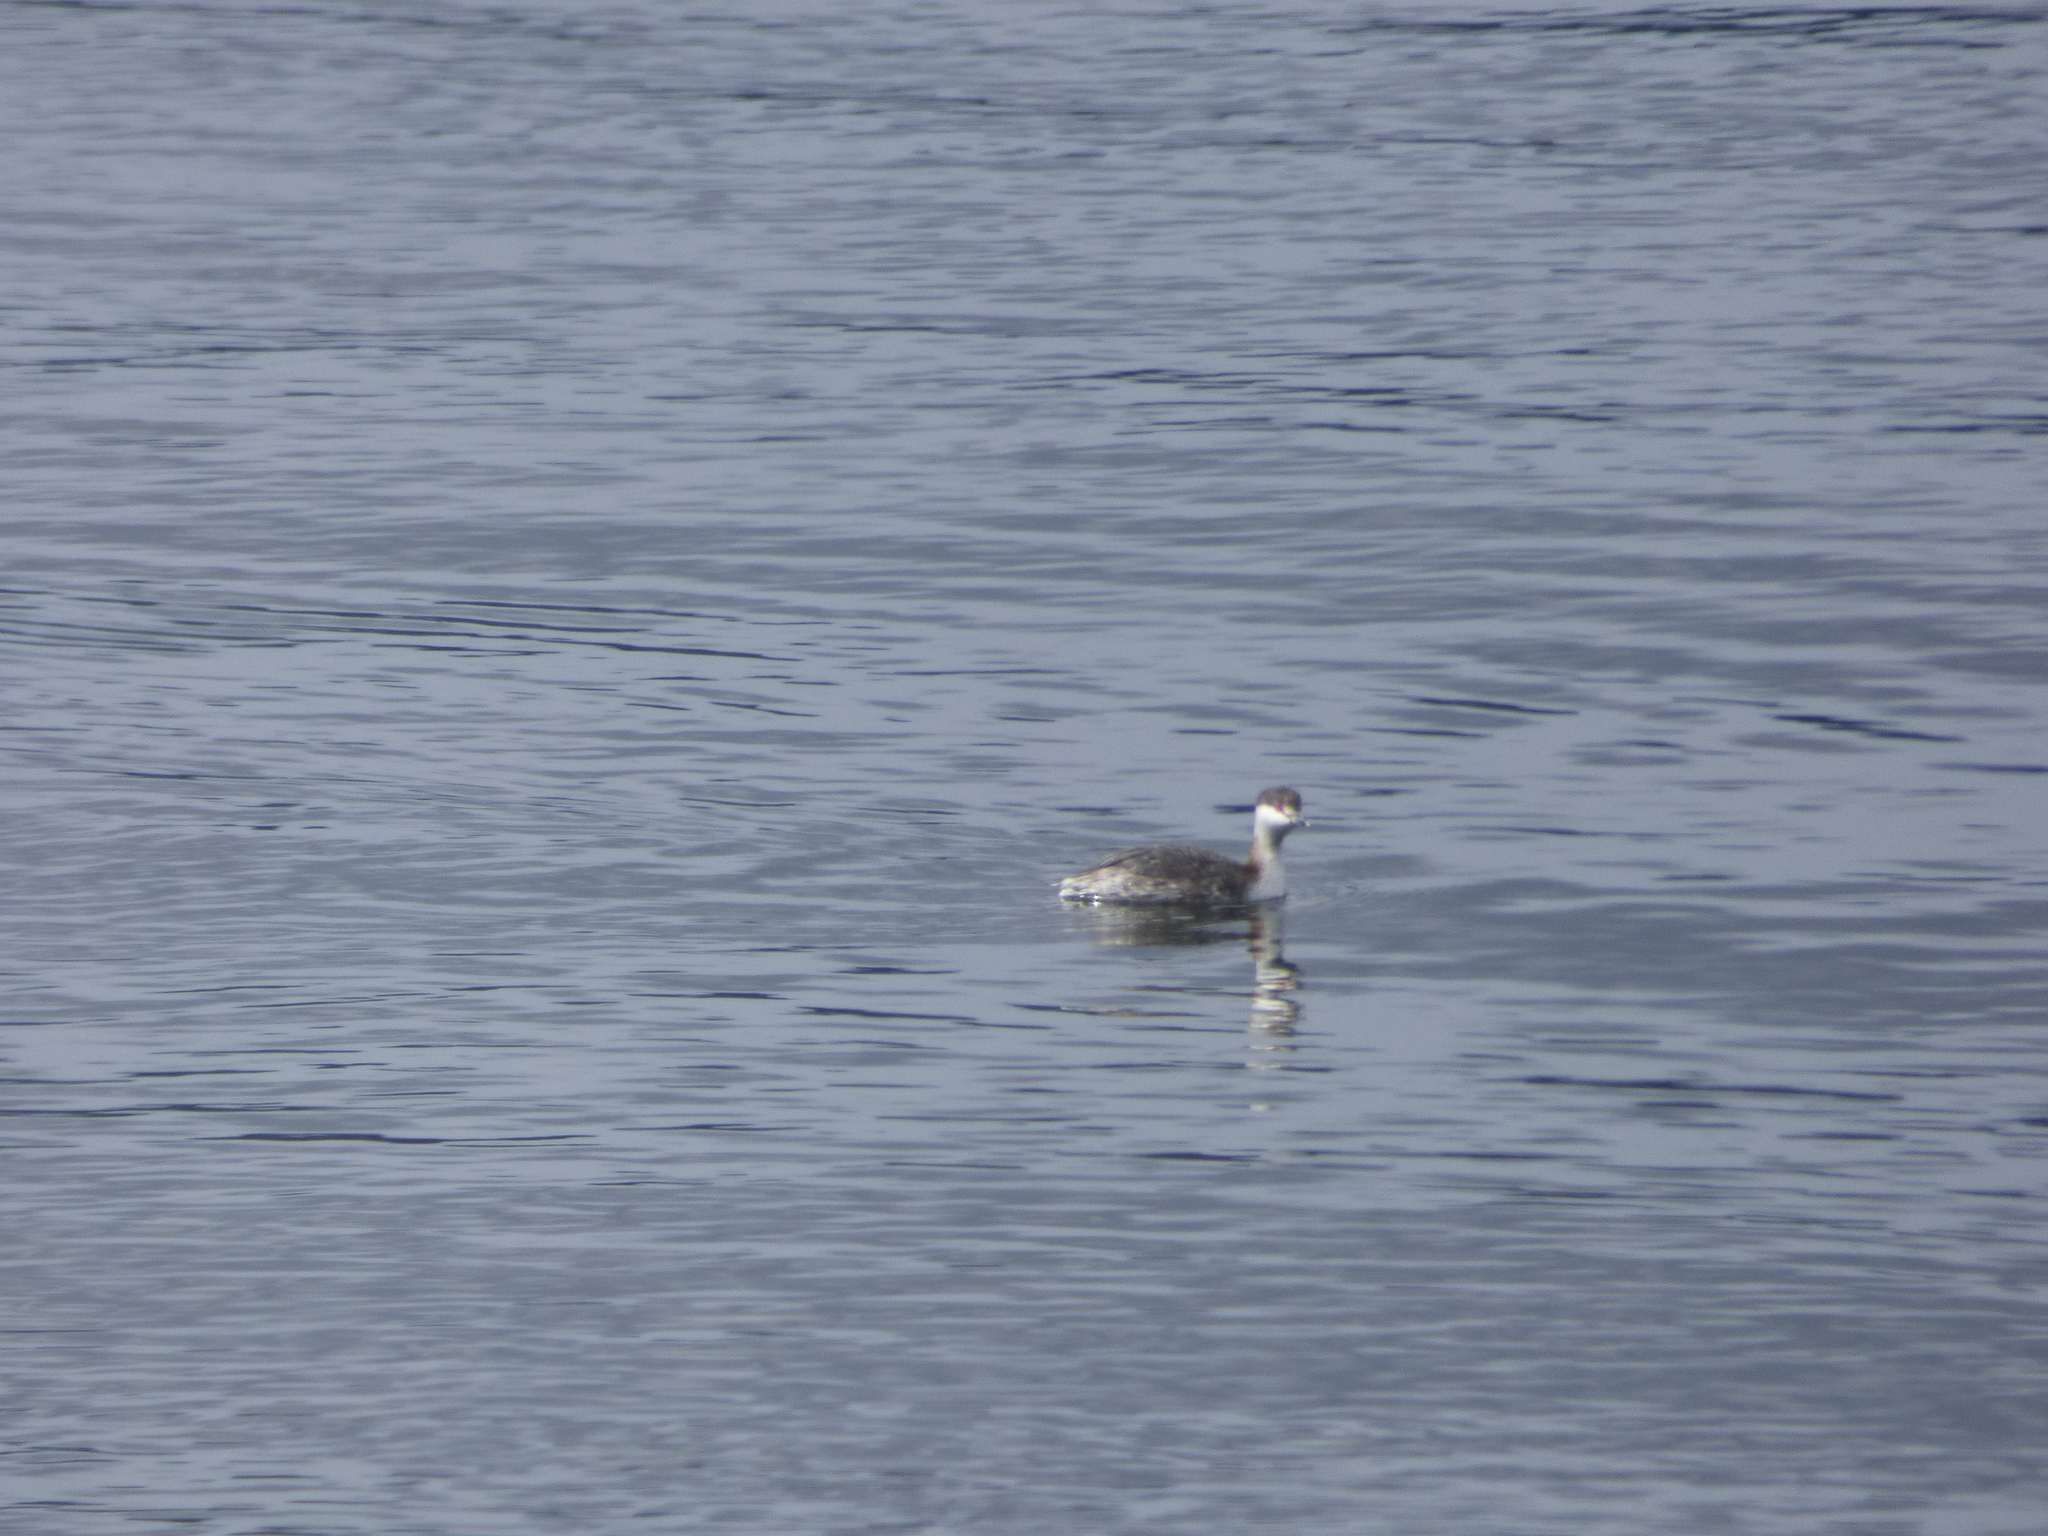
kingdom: Animalia
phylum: Chordata
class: Aves
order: Podicipediformes
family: Podicipedidae
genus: Podiceps
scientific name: Podiceps auritus
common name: Horned grebe
